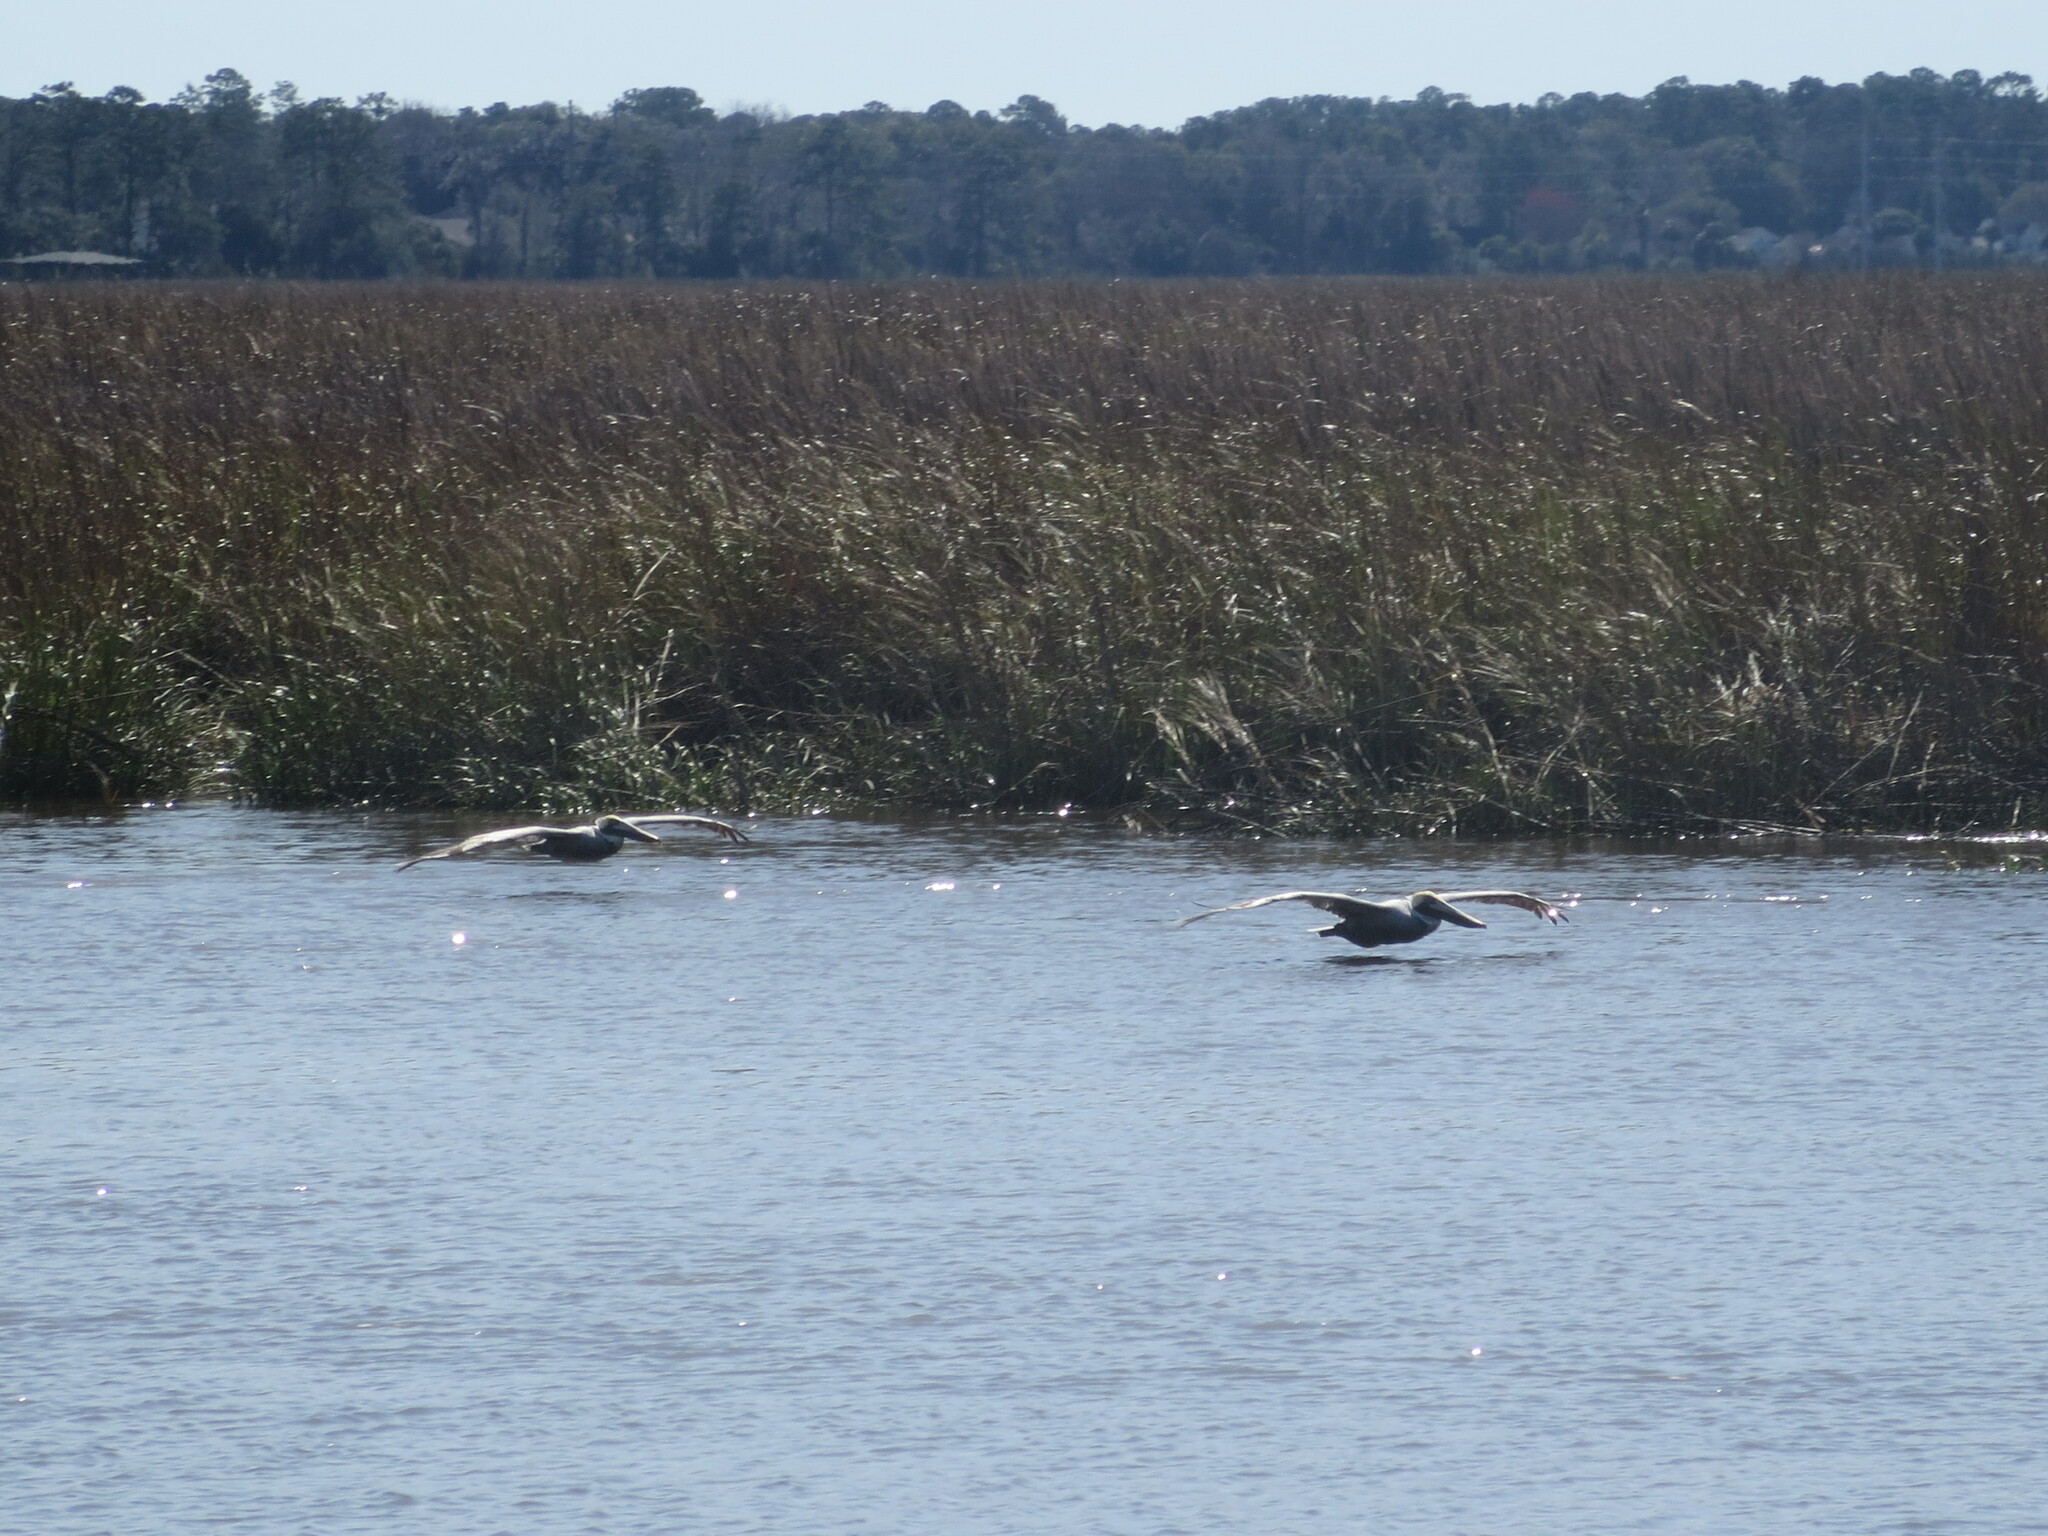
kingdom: Animalia
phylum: Chordata
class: Aves
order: Pelecaniformes
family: Pelecanidae
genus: Pelecanus
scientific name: Pelecanus occidentalis
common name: Brown pelican
